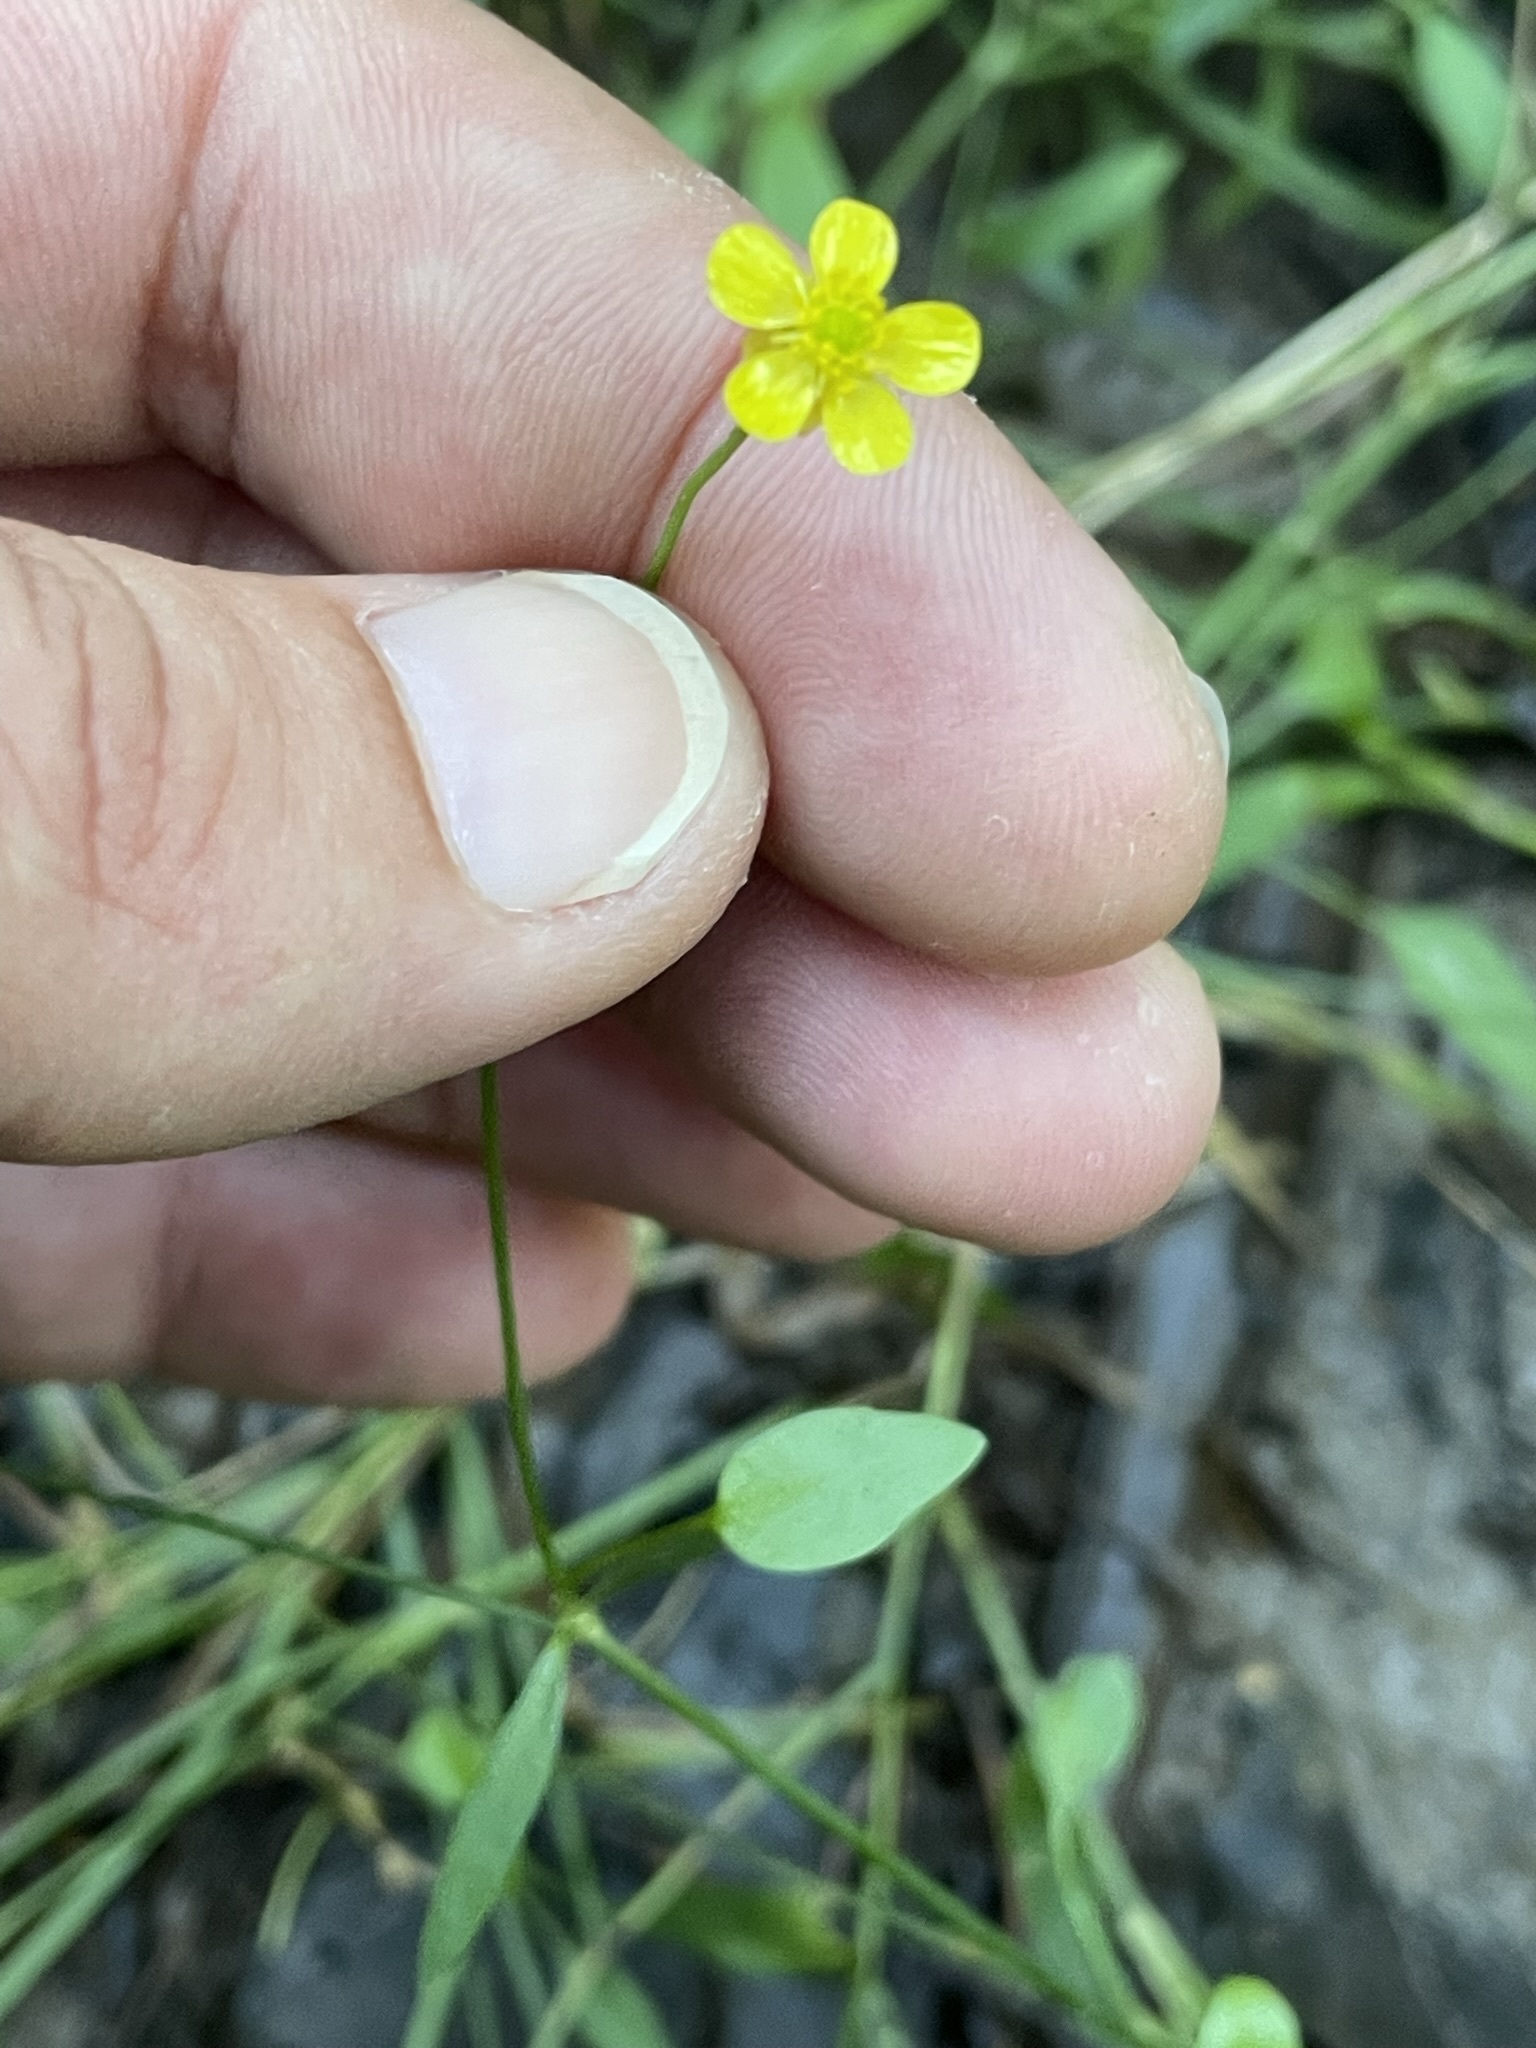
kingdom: Plantae
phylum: Tracheophyta
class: Magnoliopsida
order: Ranunculales
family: Ranunculaceae
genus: Ranunculus
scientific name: Ranunculus flammula
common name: Lesser spearwort
